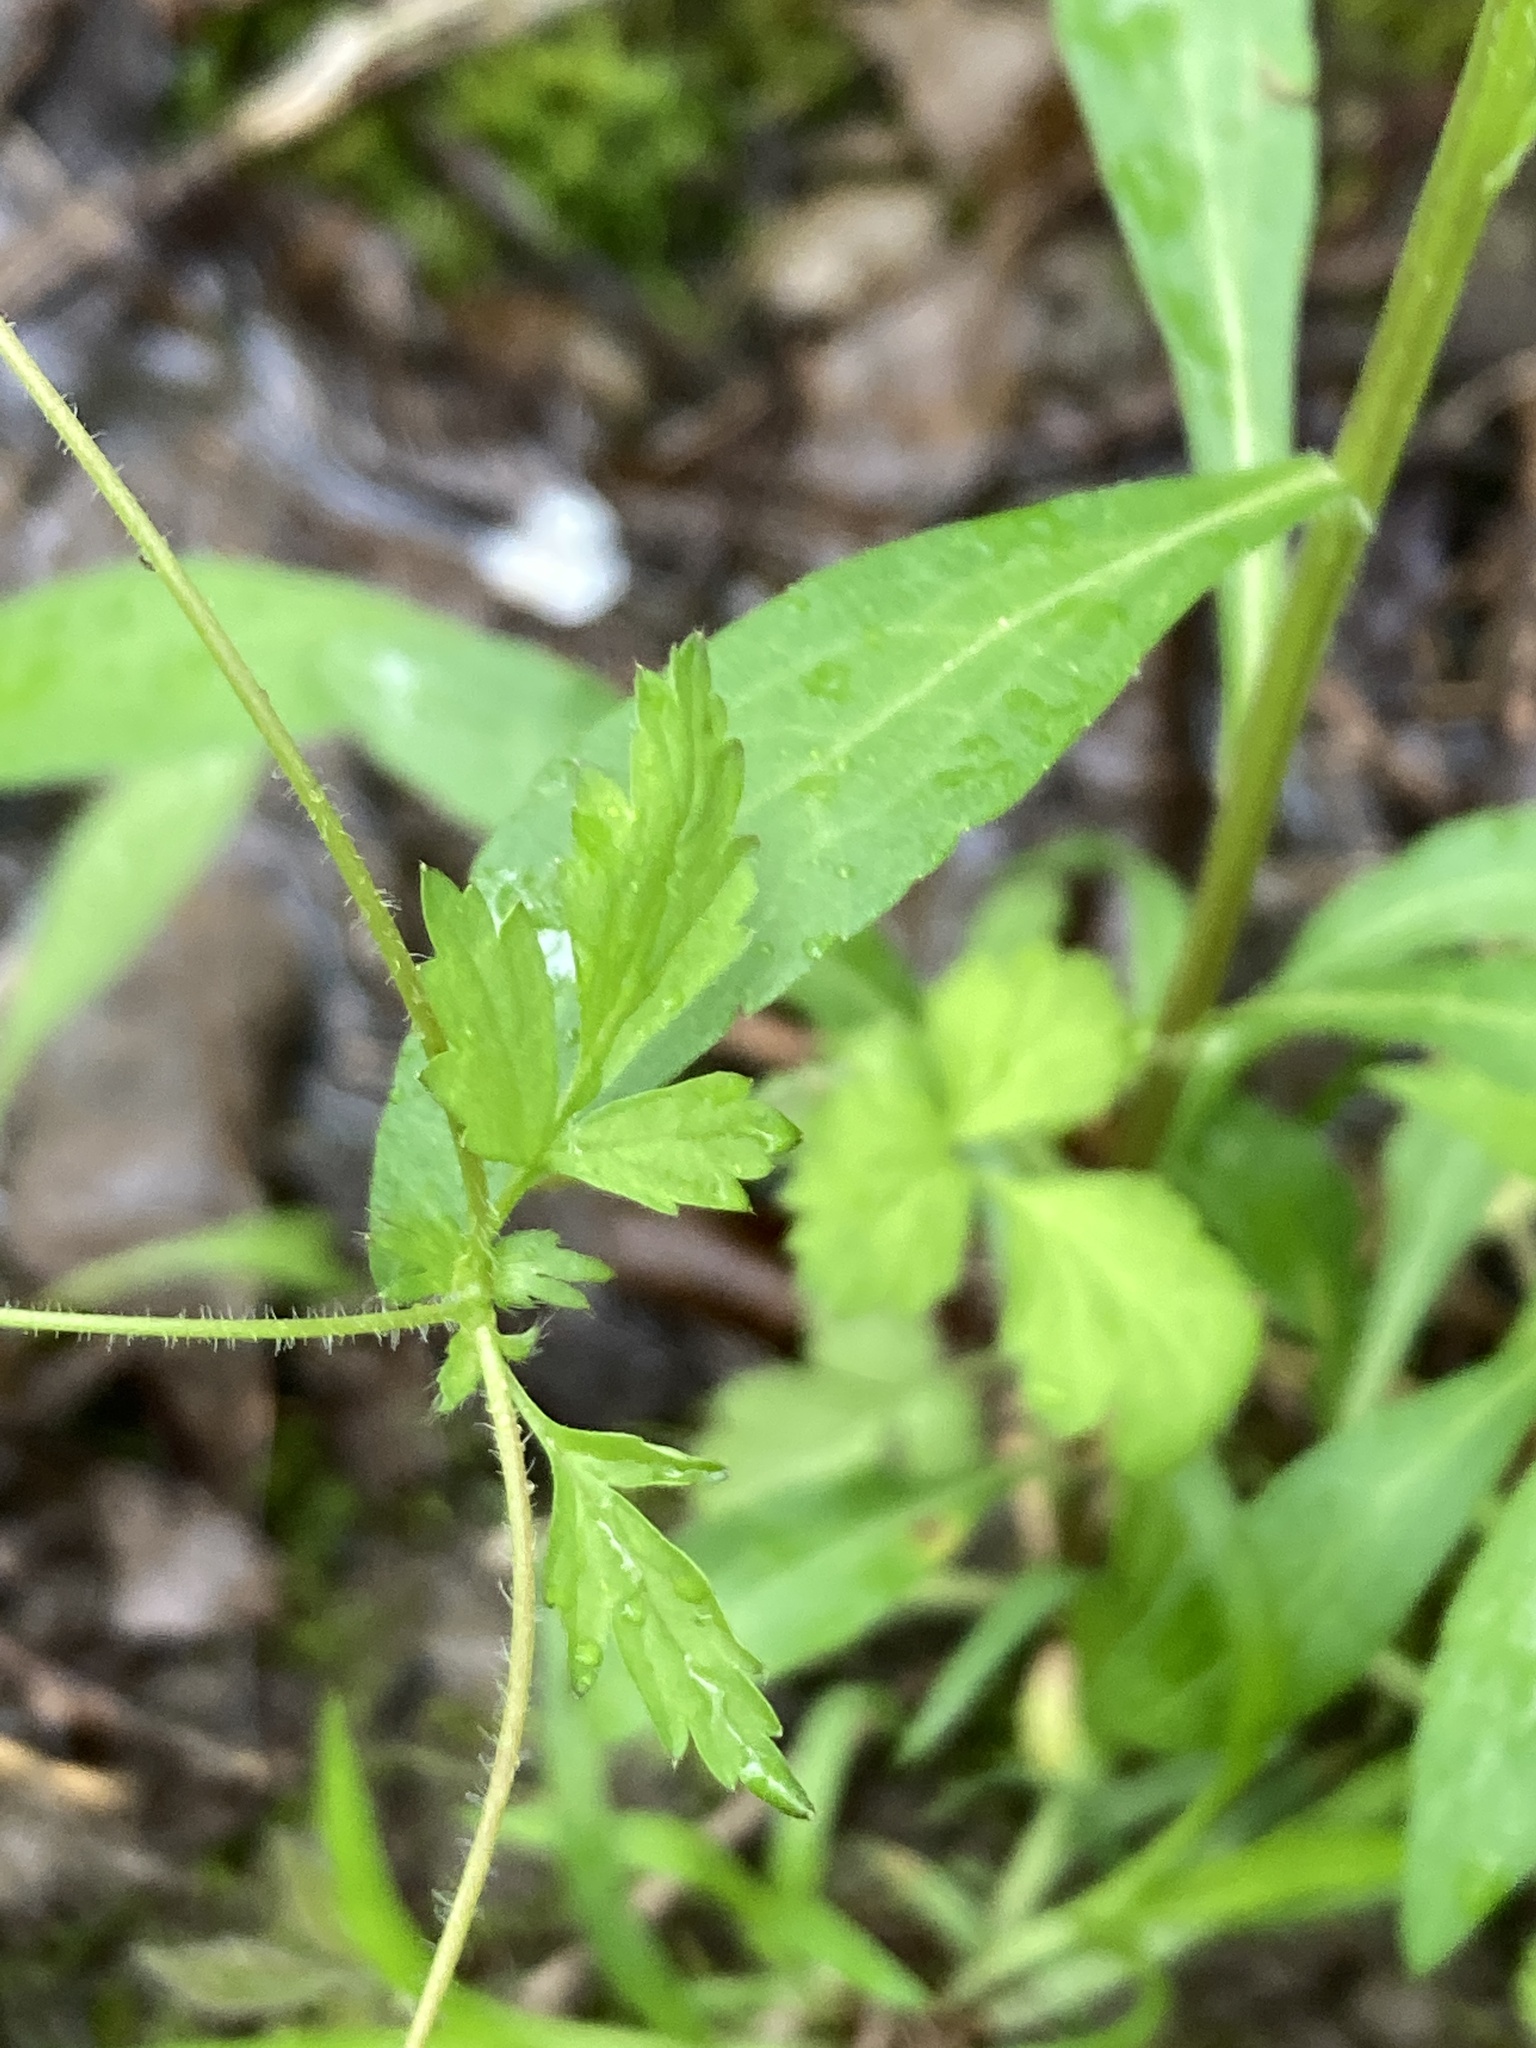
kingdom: Plantae
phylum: Tracheophyta
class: Magnoliopsida
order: Rosales
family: Rosaceae
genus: Geum
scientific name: Geum vernum
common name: Spring avens
